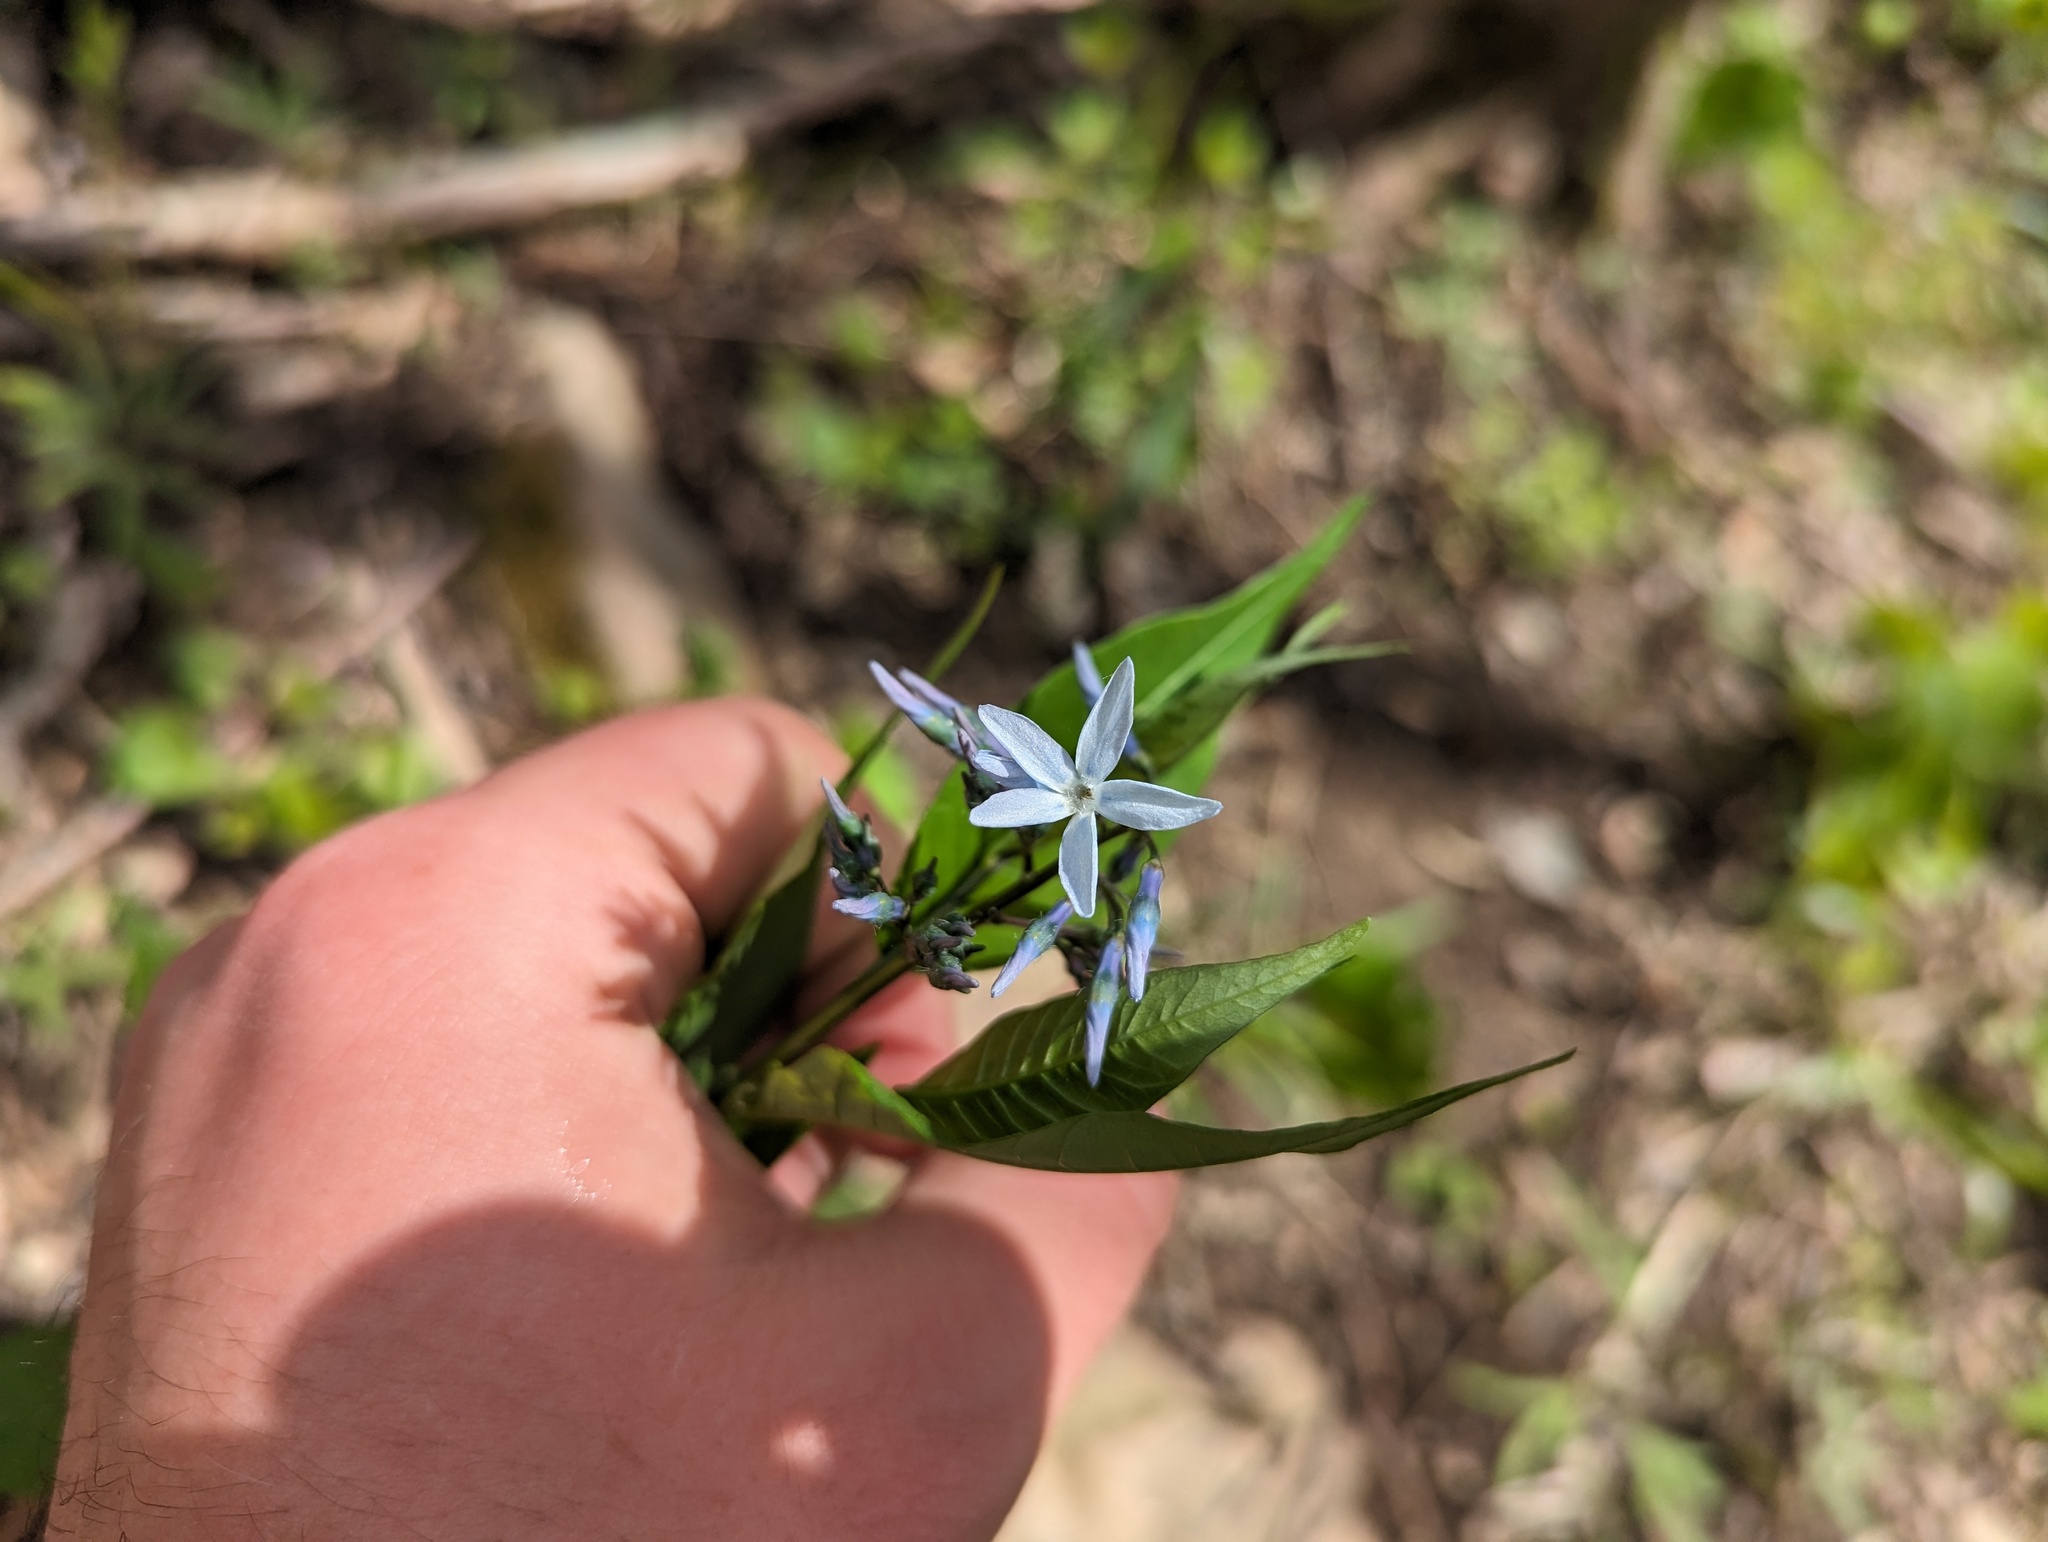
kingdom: Plantae
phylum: Tracheophyta
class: Magnoliopsida
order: Gentianales
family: Apocynaceae
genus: Amsonia
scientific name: Amsonia tabernaemontana
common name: Texas-star
